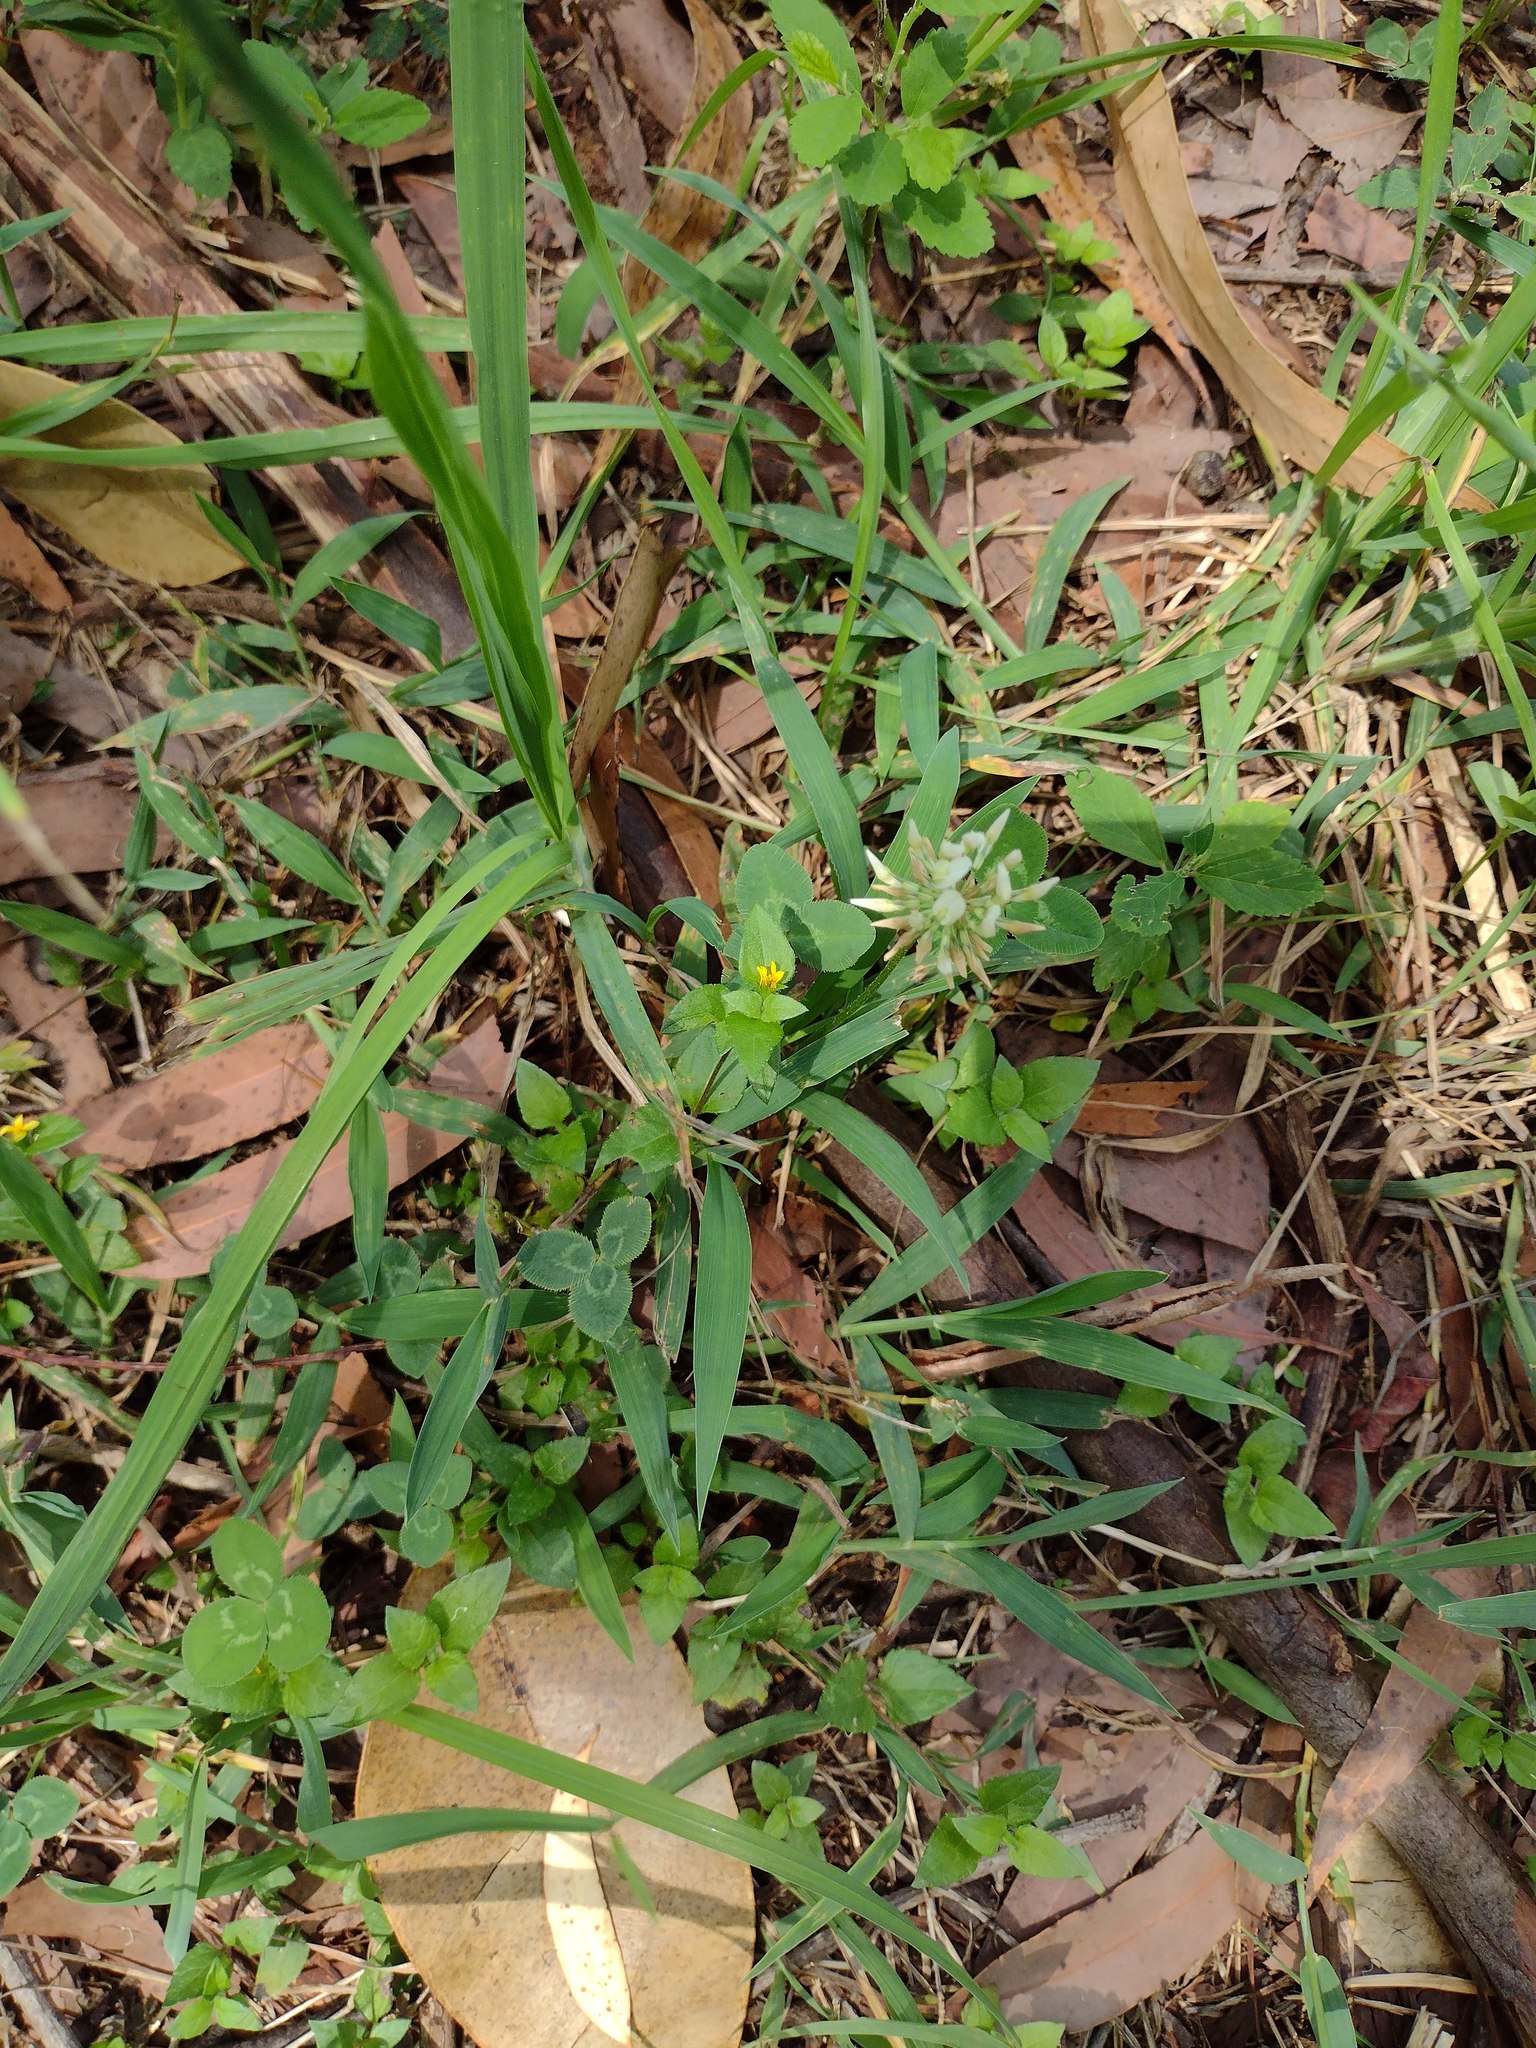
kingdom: Plantae
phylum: Tracheophyta
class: Magnoliopsida
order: Fabales
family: Fabaceae
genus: Trifolium
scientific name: Trifolium repens
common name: White clover
